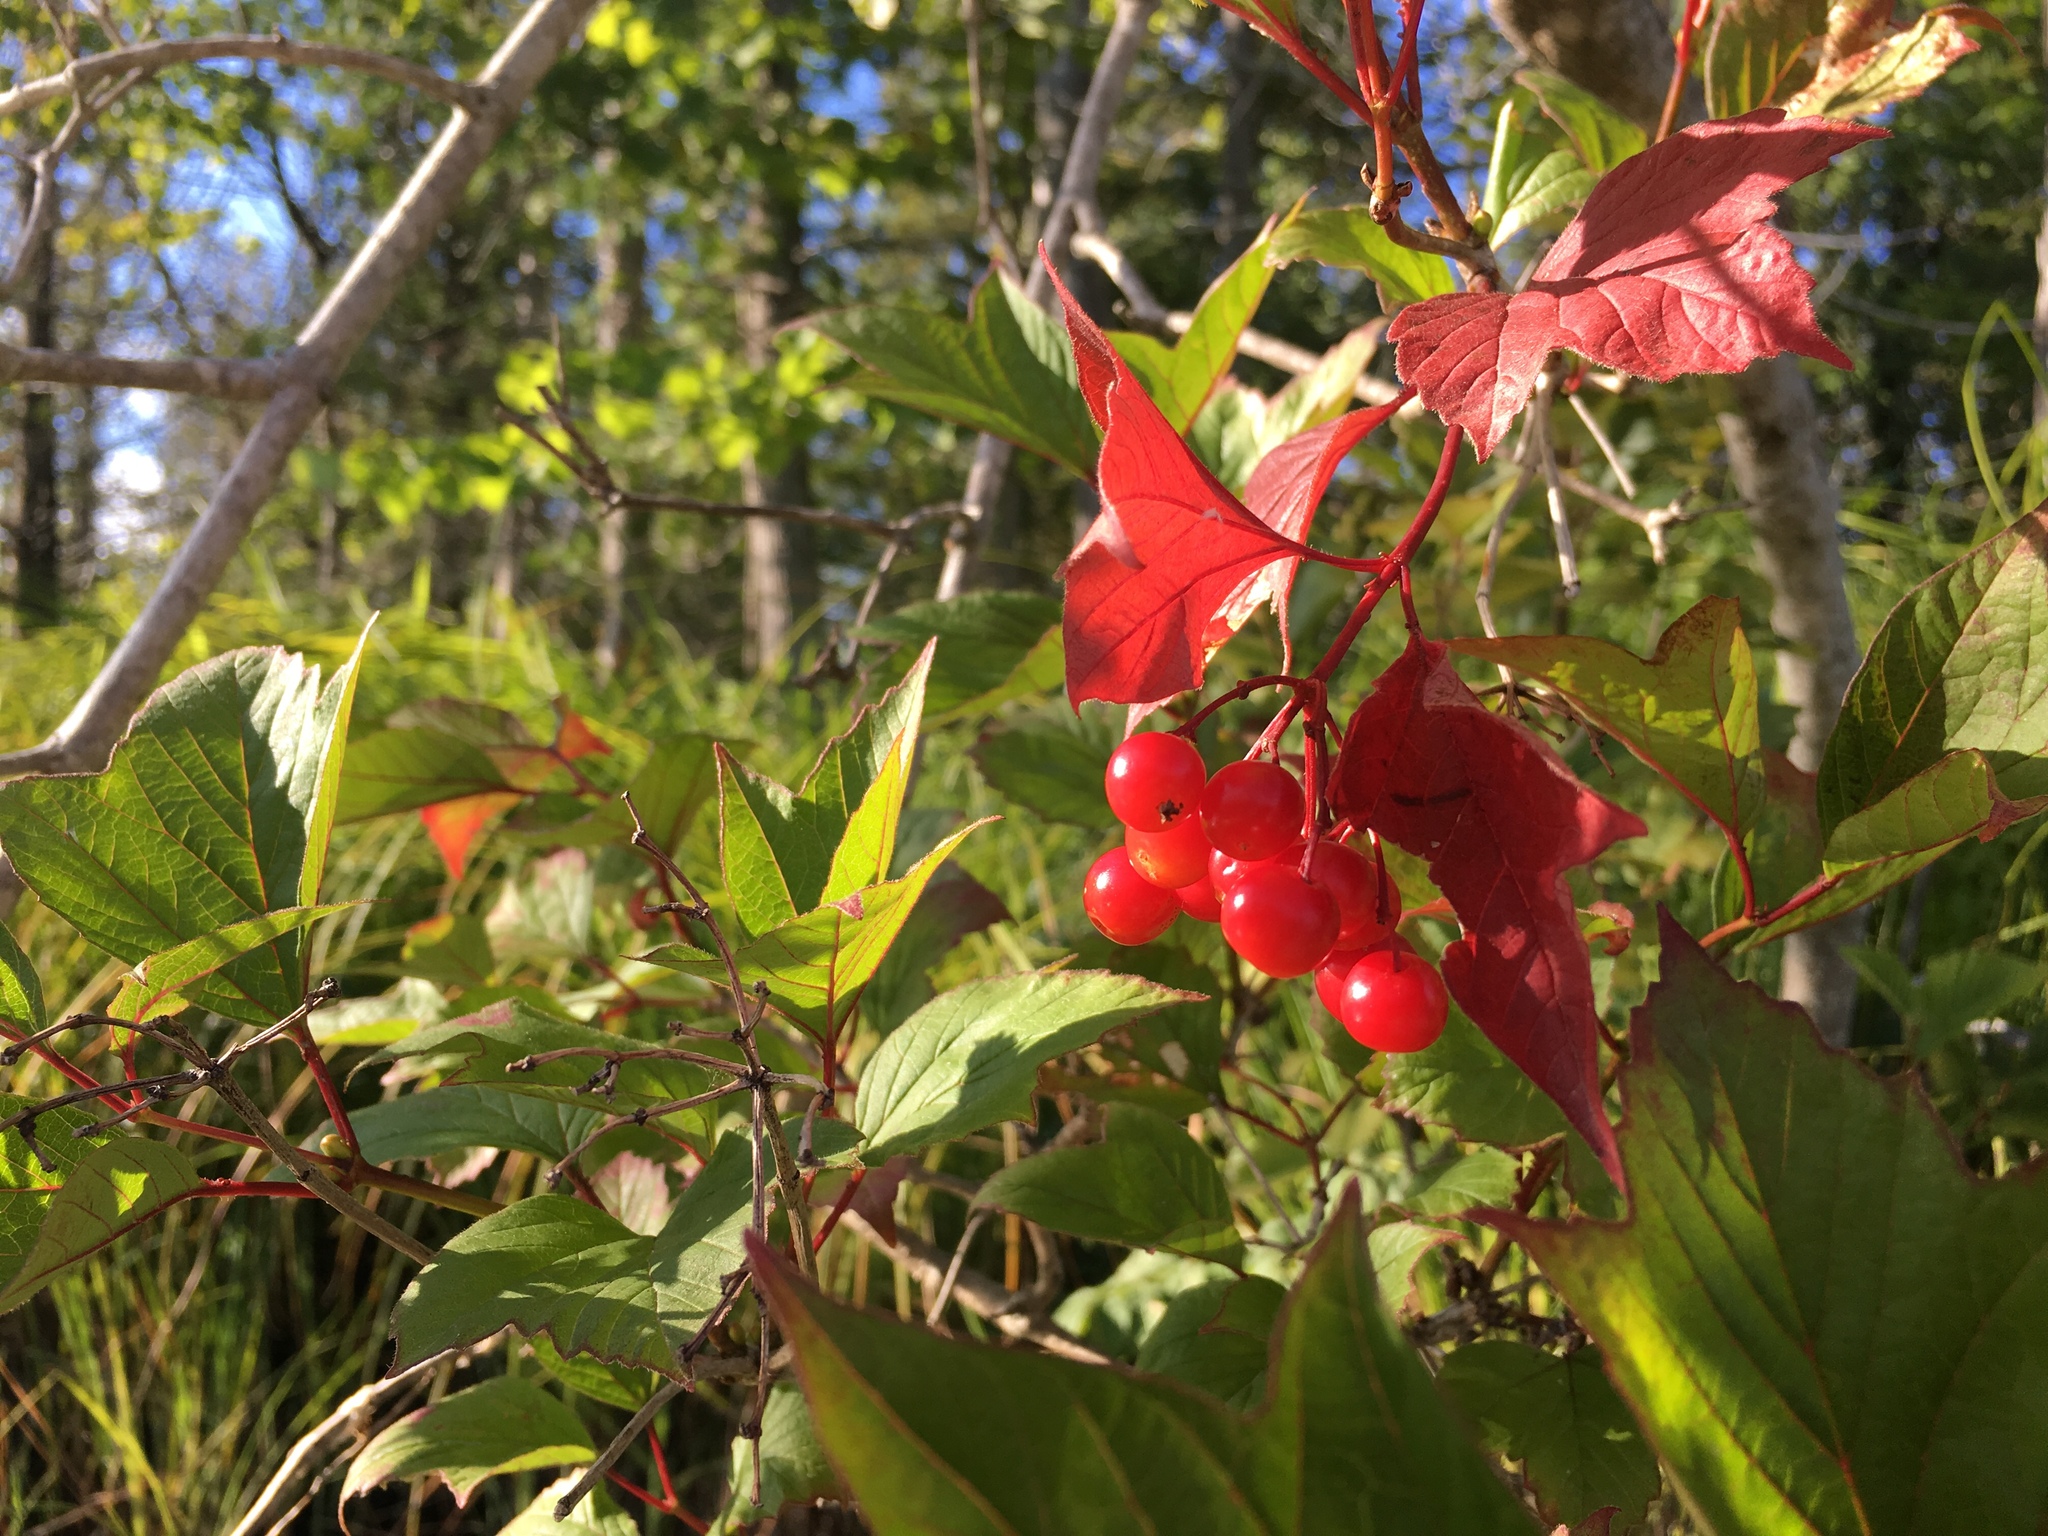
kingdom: Plantae
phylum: Tracheophyta
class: Magnoliopsida
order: Dipsacales
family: Viburnaceae
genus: Viburnum
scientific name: Viburnum trilobum
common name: American cranberrybush
